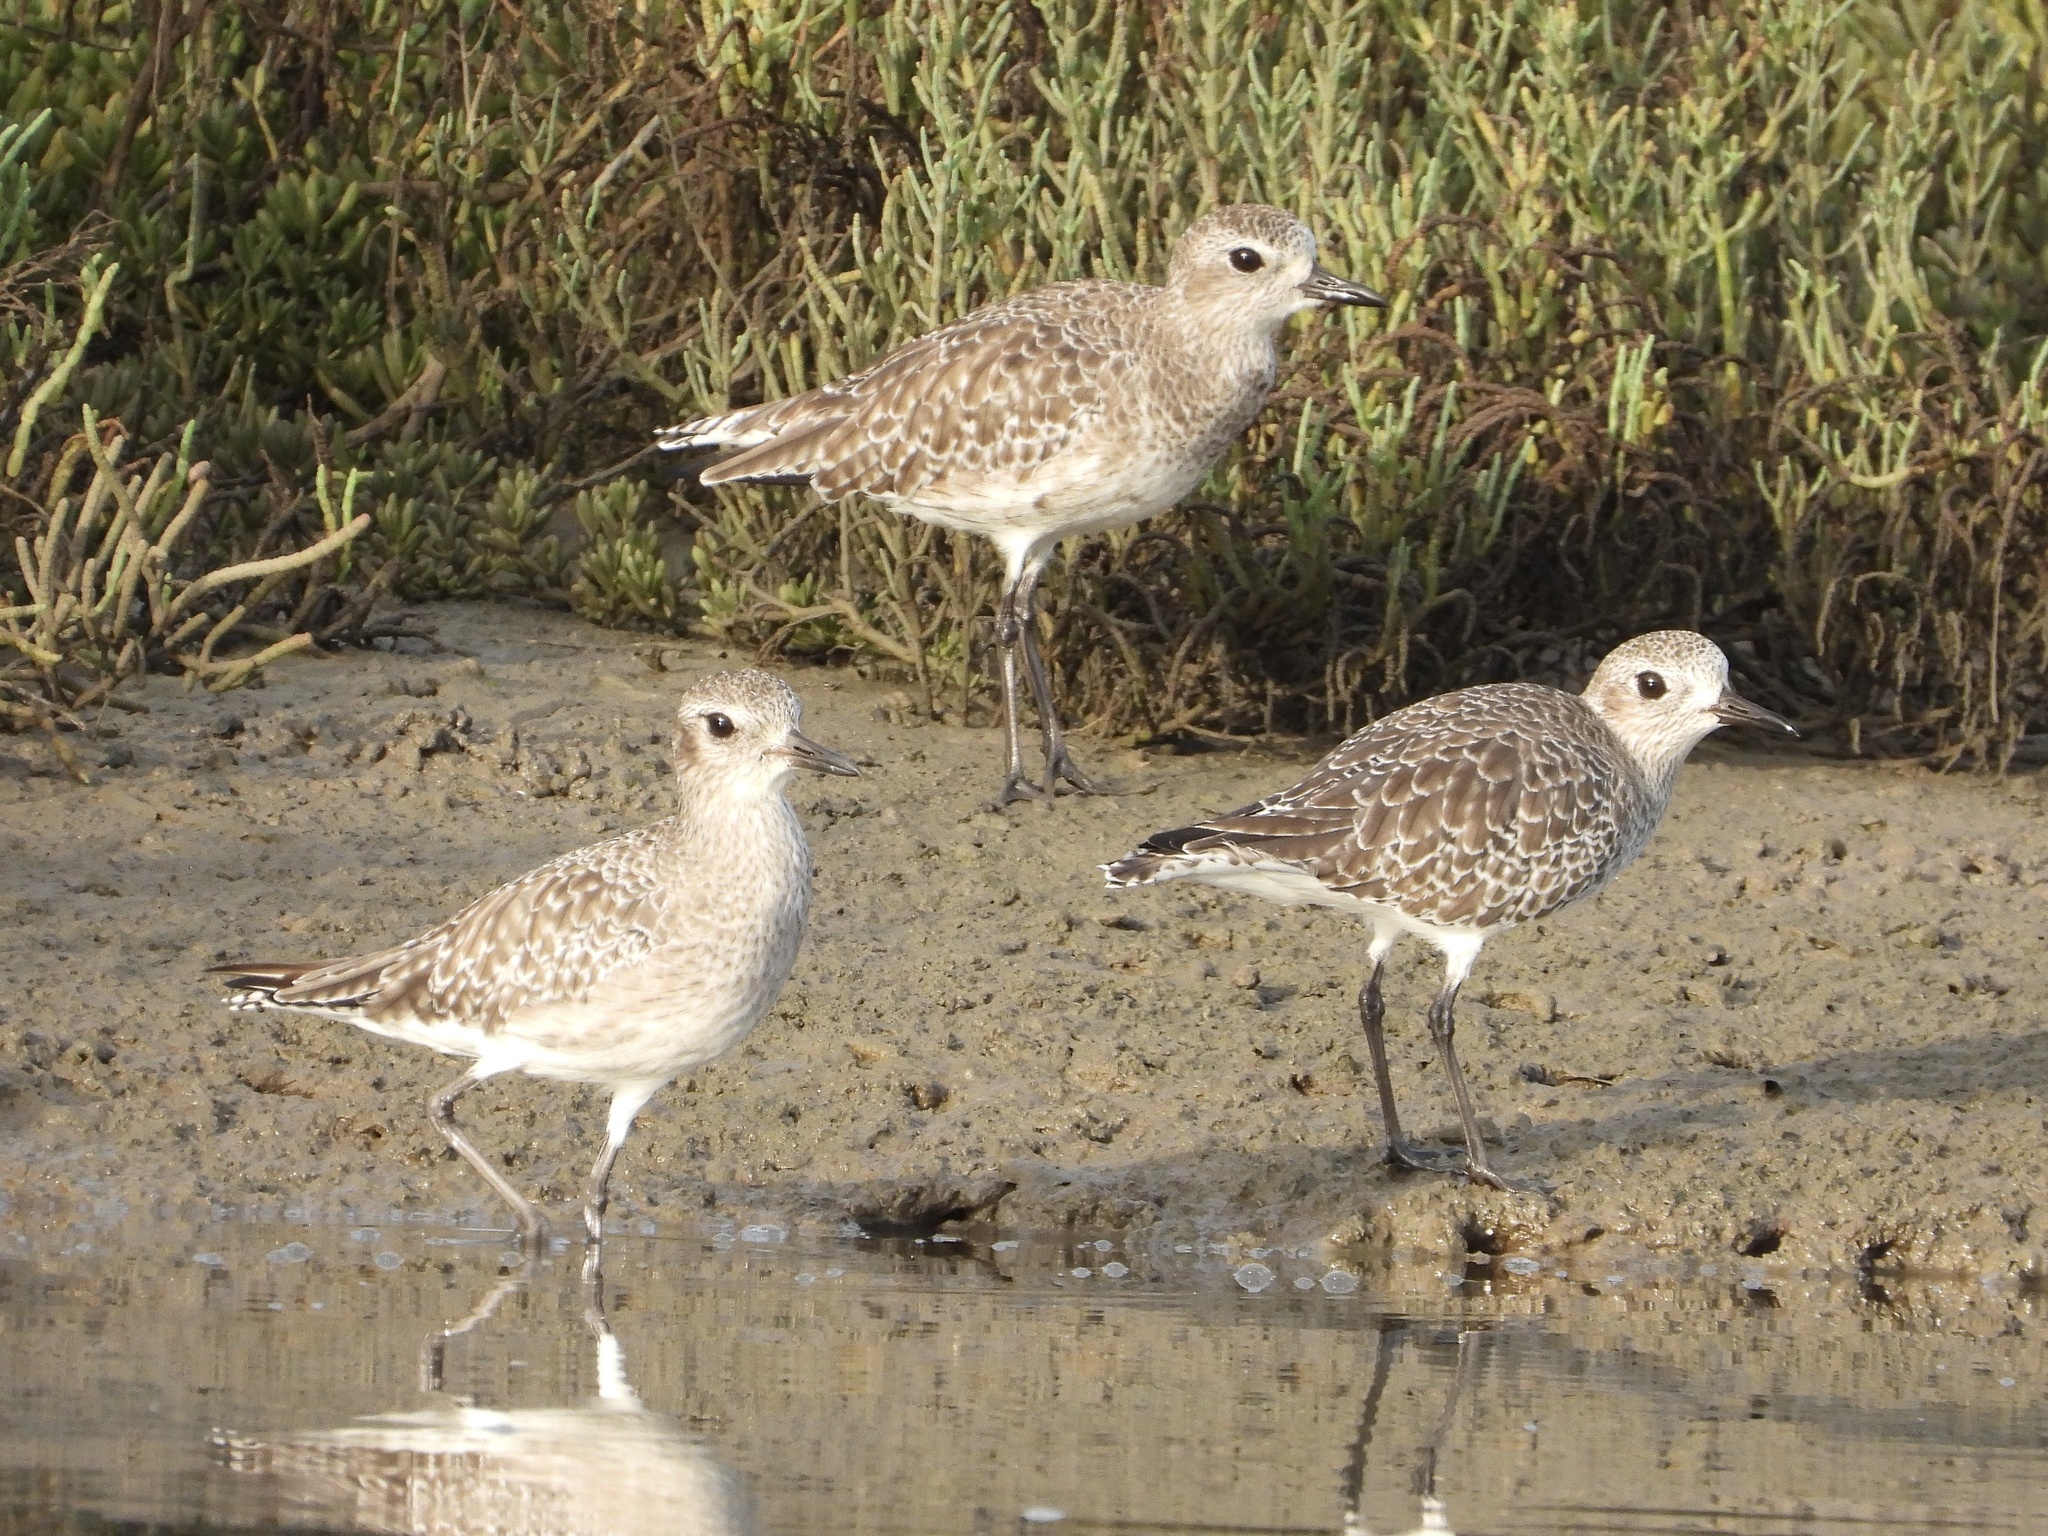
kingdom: Animalia
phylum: Chordata
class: Aves
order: Charadriiformes
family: Charadriidae
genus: Pluvialis
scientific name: Pluvialis squatarola
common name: Grey plover
